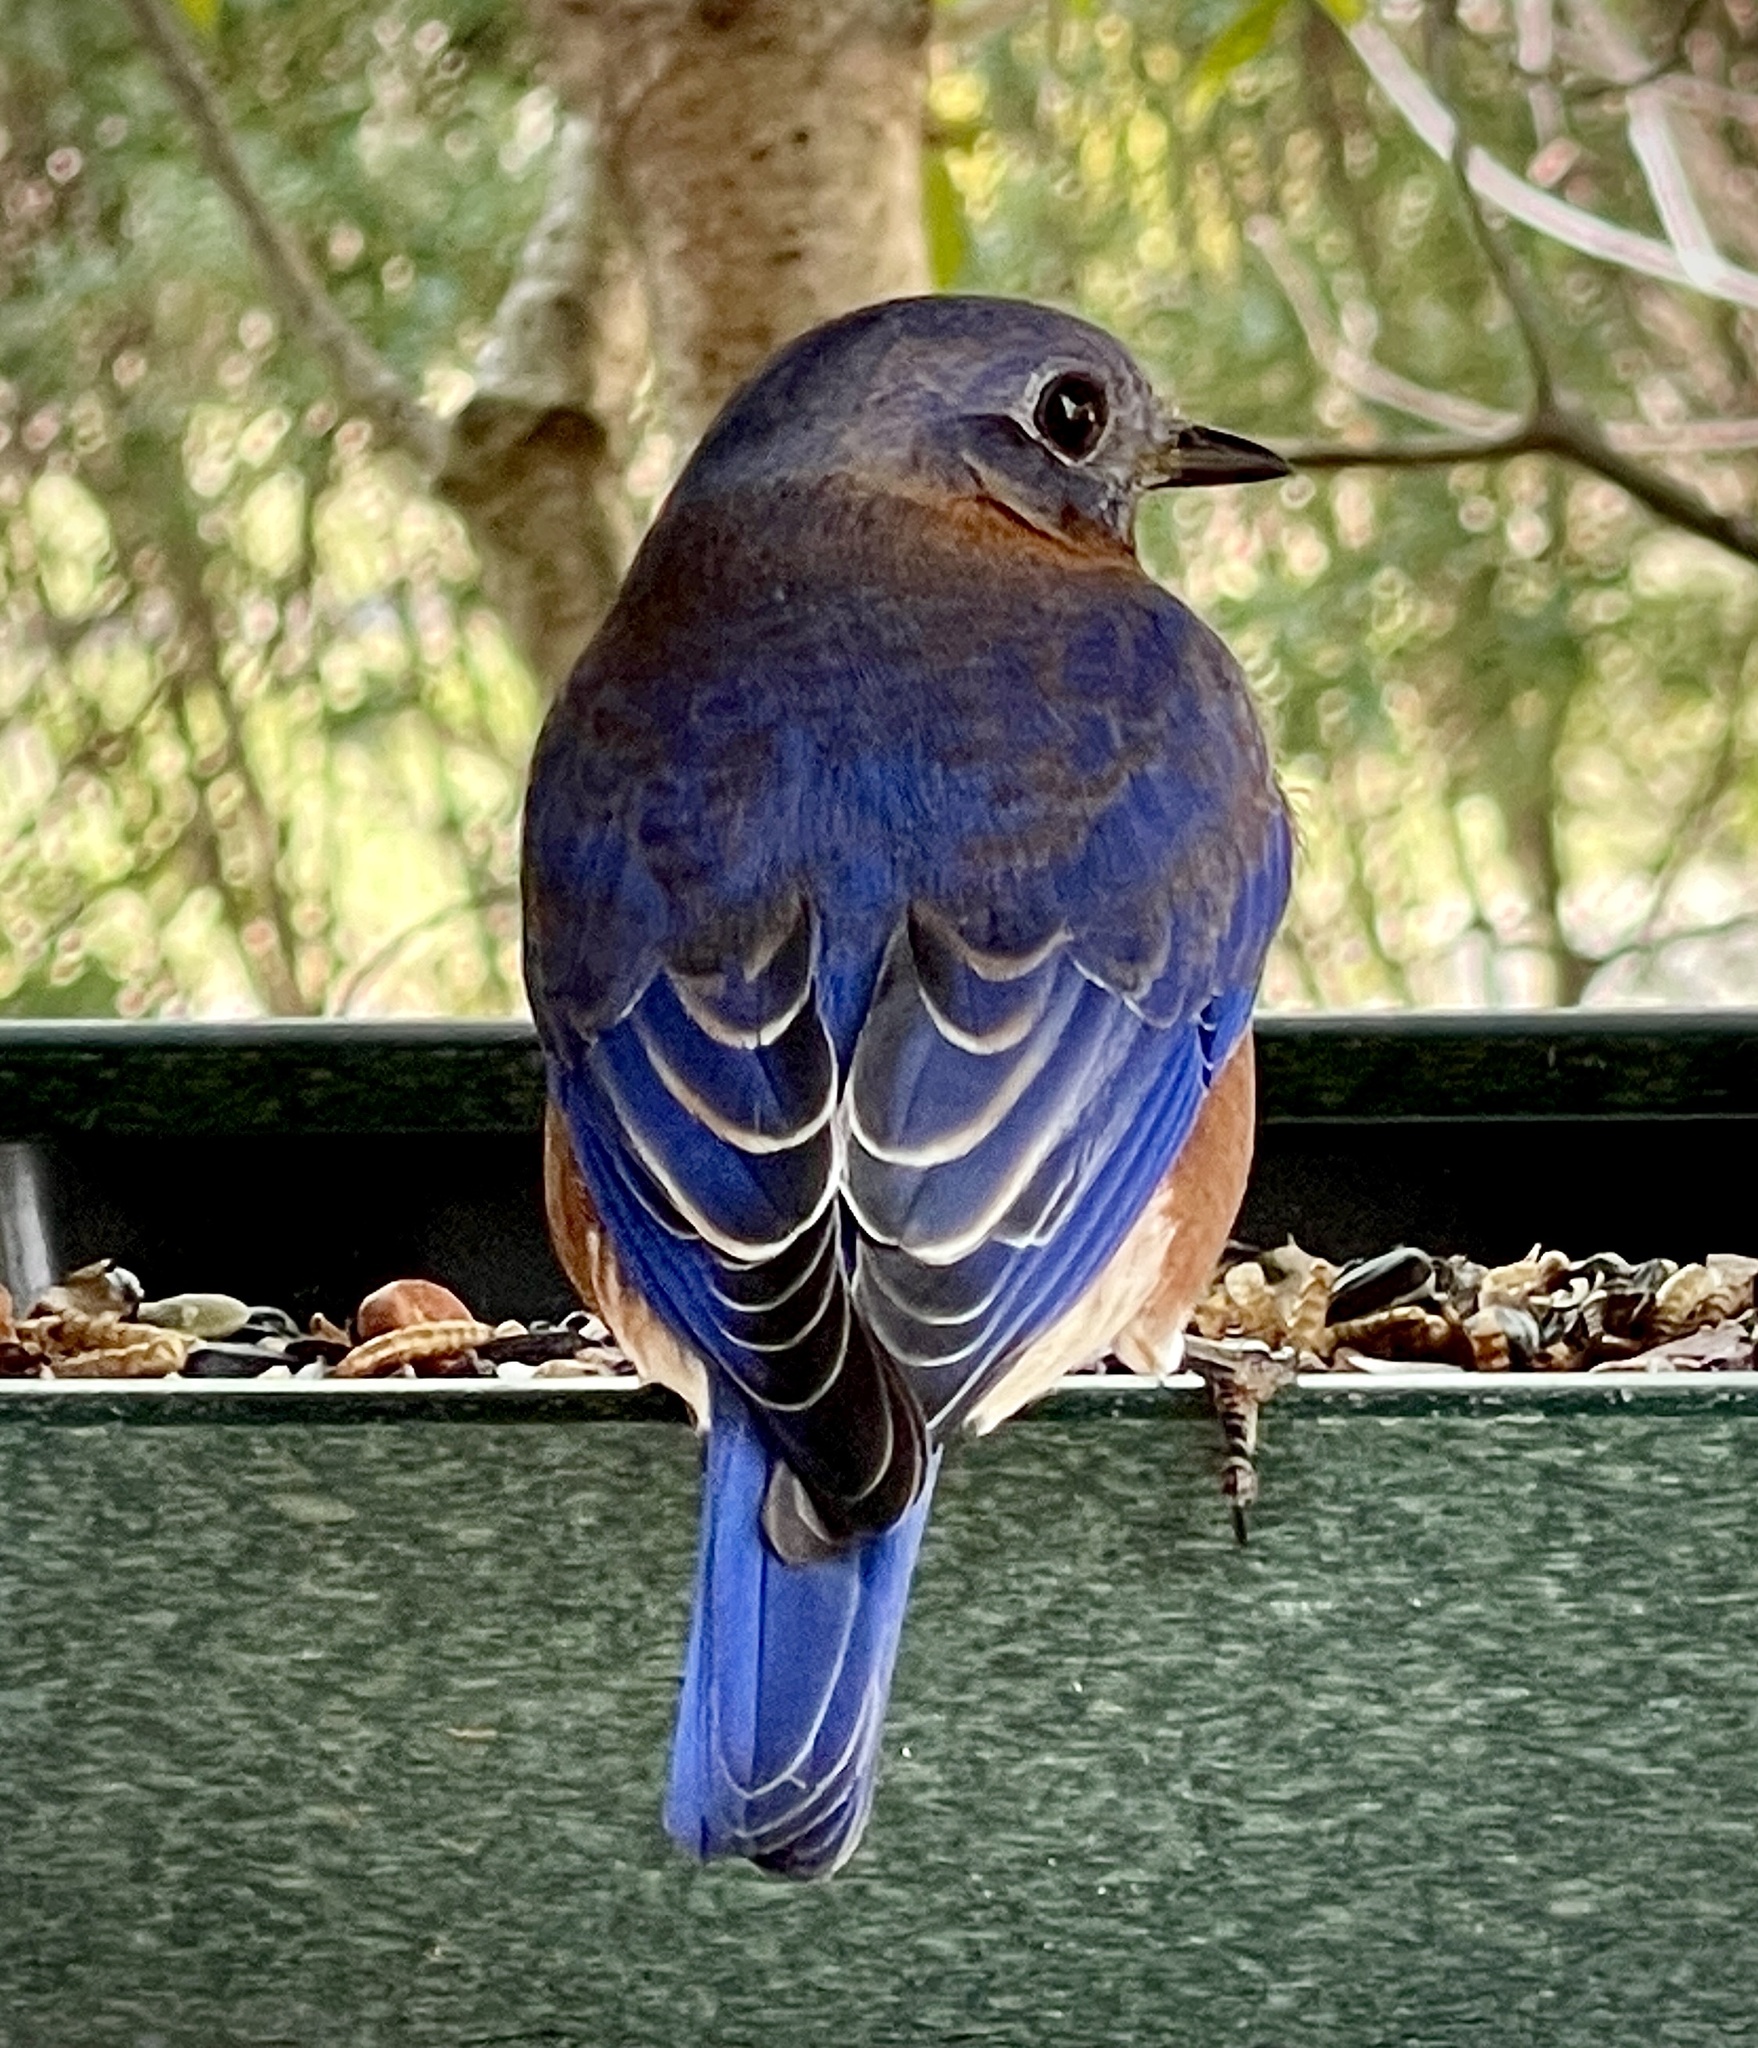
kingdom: Animalia
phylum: Chordata
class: Aves
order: Passeriformes
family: Turdidae
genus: Sialia
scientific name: Sialia sialis
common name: Eastern bluebird
